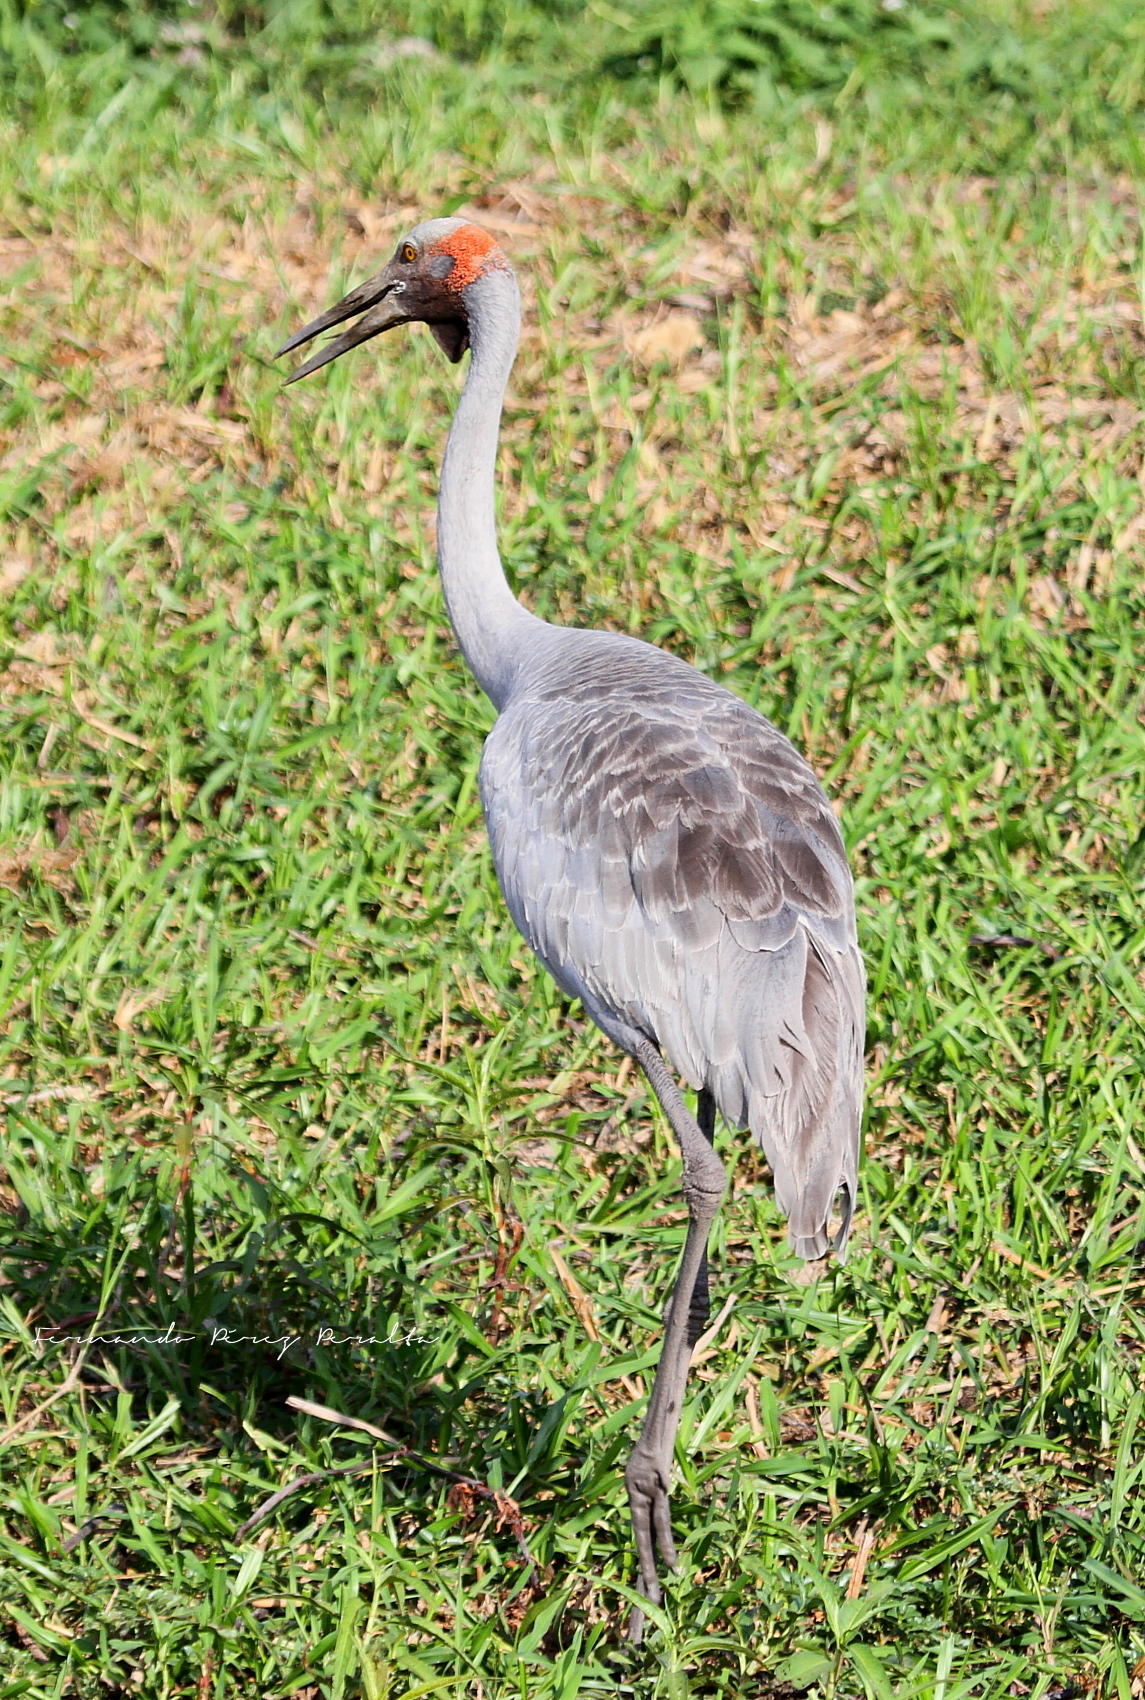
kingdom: Animalia
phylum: Chordata
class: Aves
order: Gruiformes
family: Gruidae
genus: Grus
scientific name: Grus rubicunda
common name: Brolga
